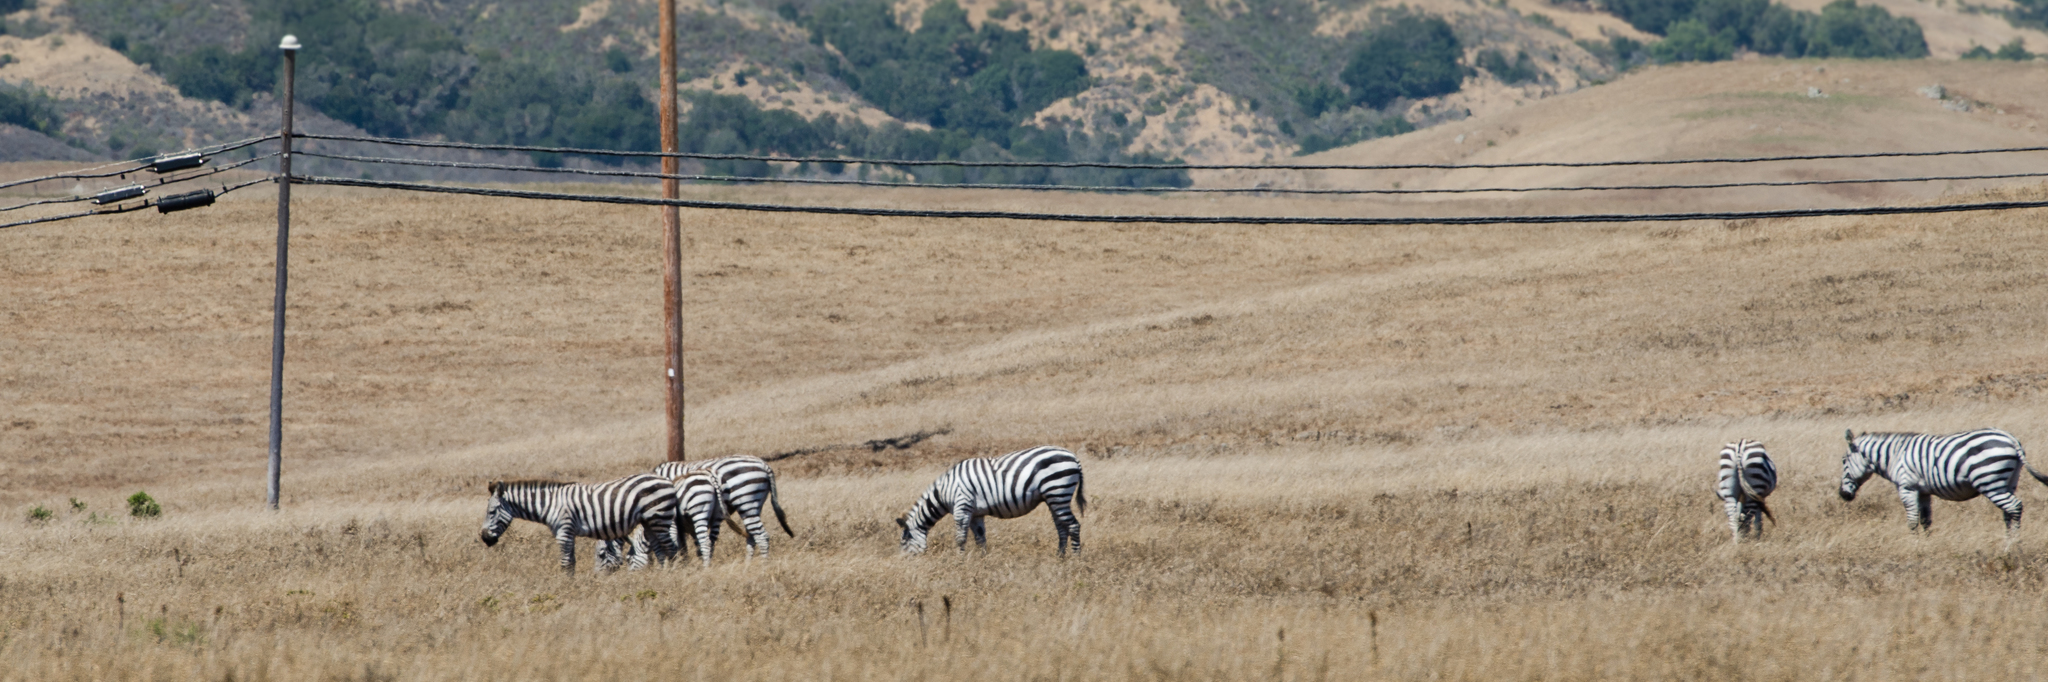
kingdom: Animalia
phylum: Chordata
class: Mammalia
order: Perissodactyla
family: Equidae
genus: Equus
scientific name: Equus quagga
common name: Plains zebra
